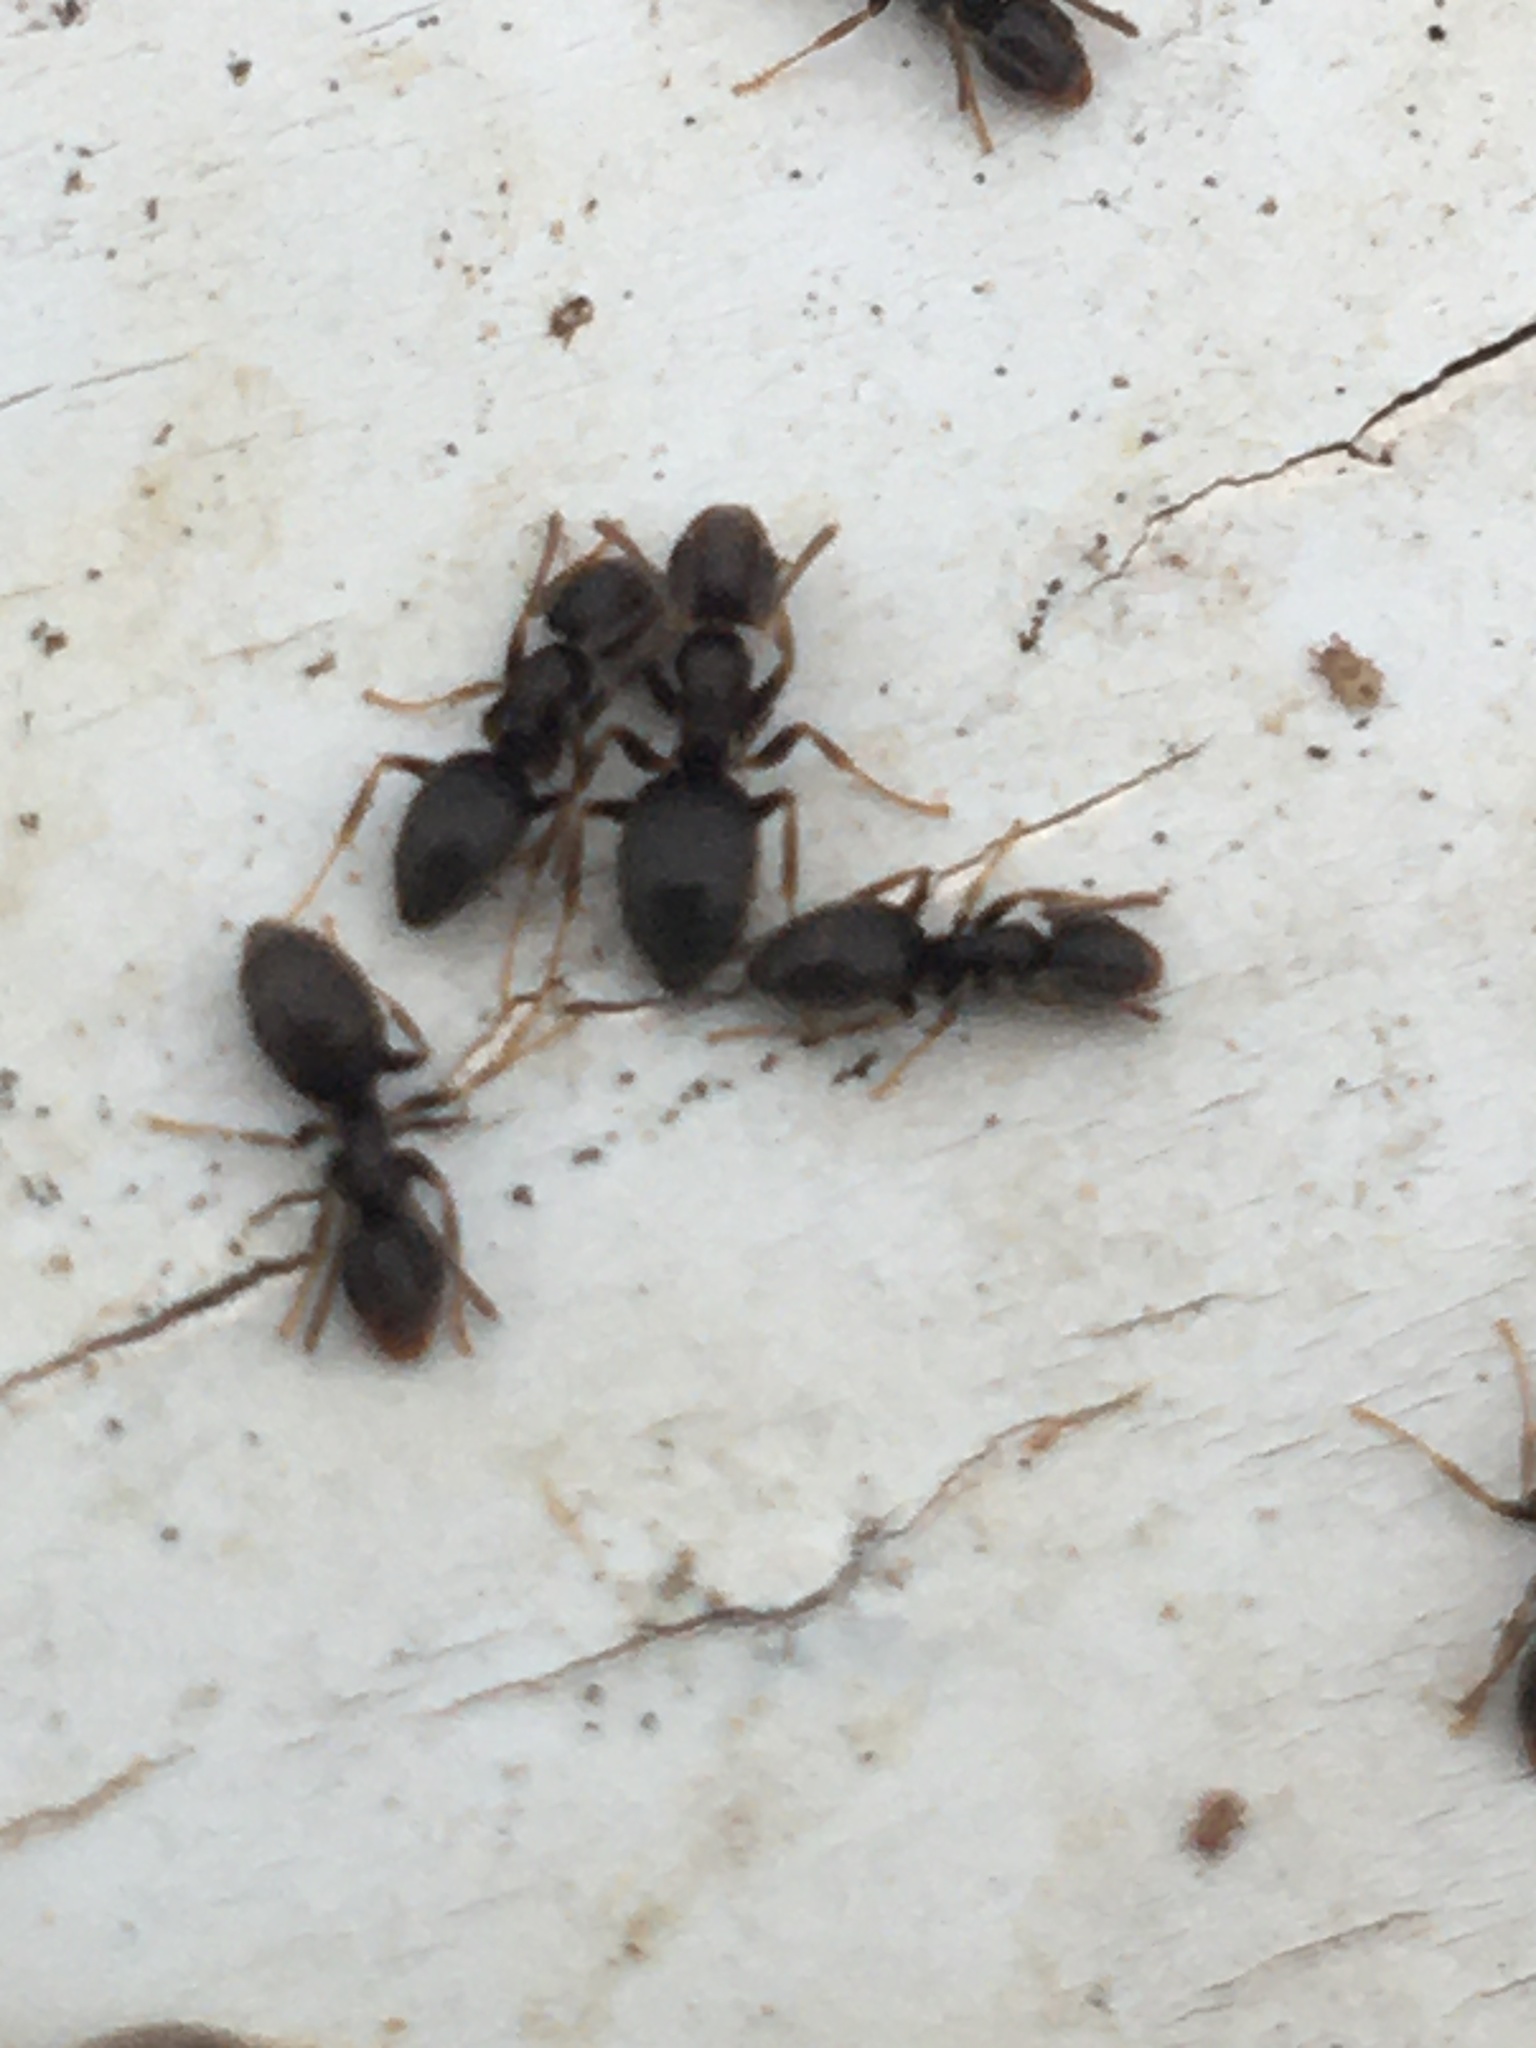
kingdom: Animalia
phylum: Arthropoda
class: Insecta
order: Hymenoptera
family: Formicidae
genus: Tapinoma
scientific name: Tapinoma sessile
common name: Odorous house ant
